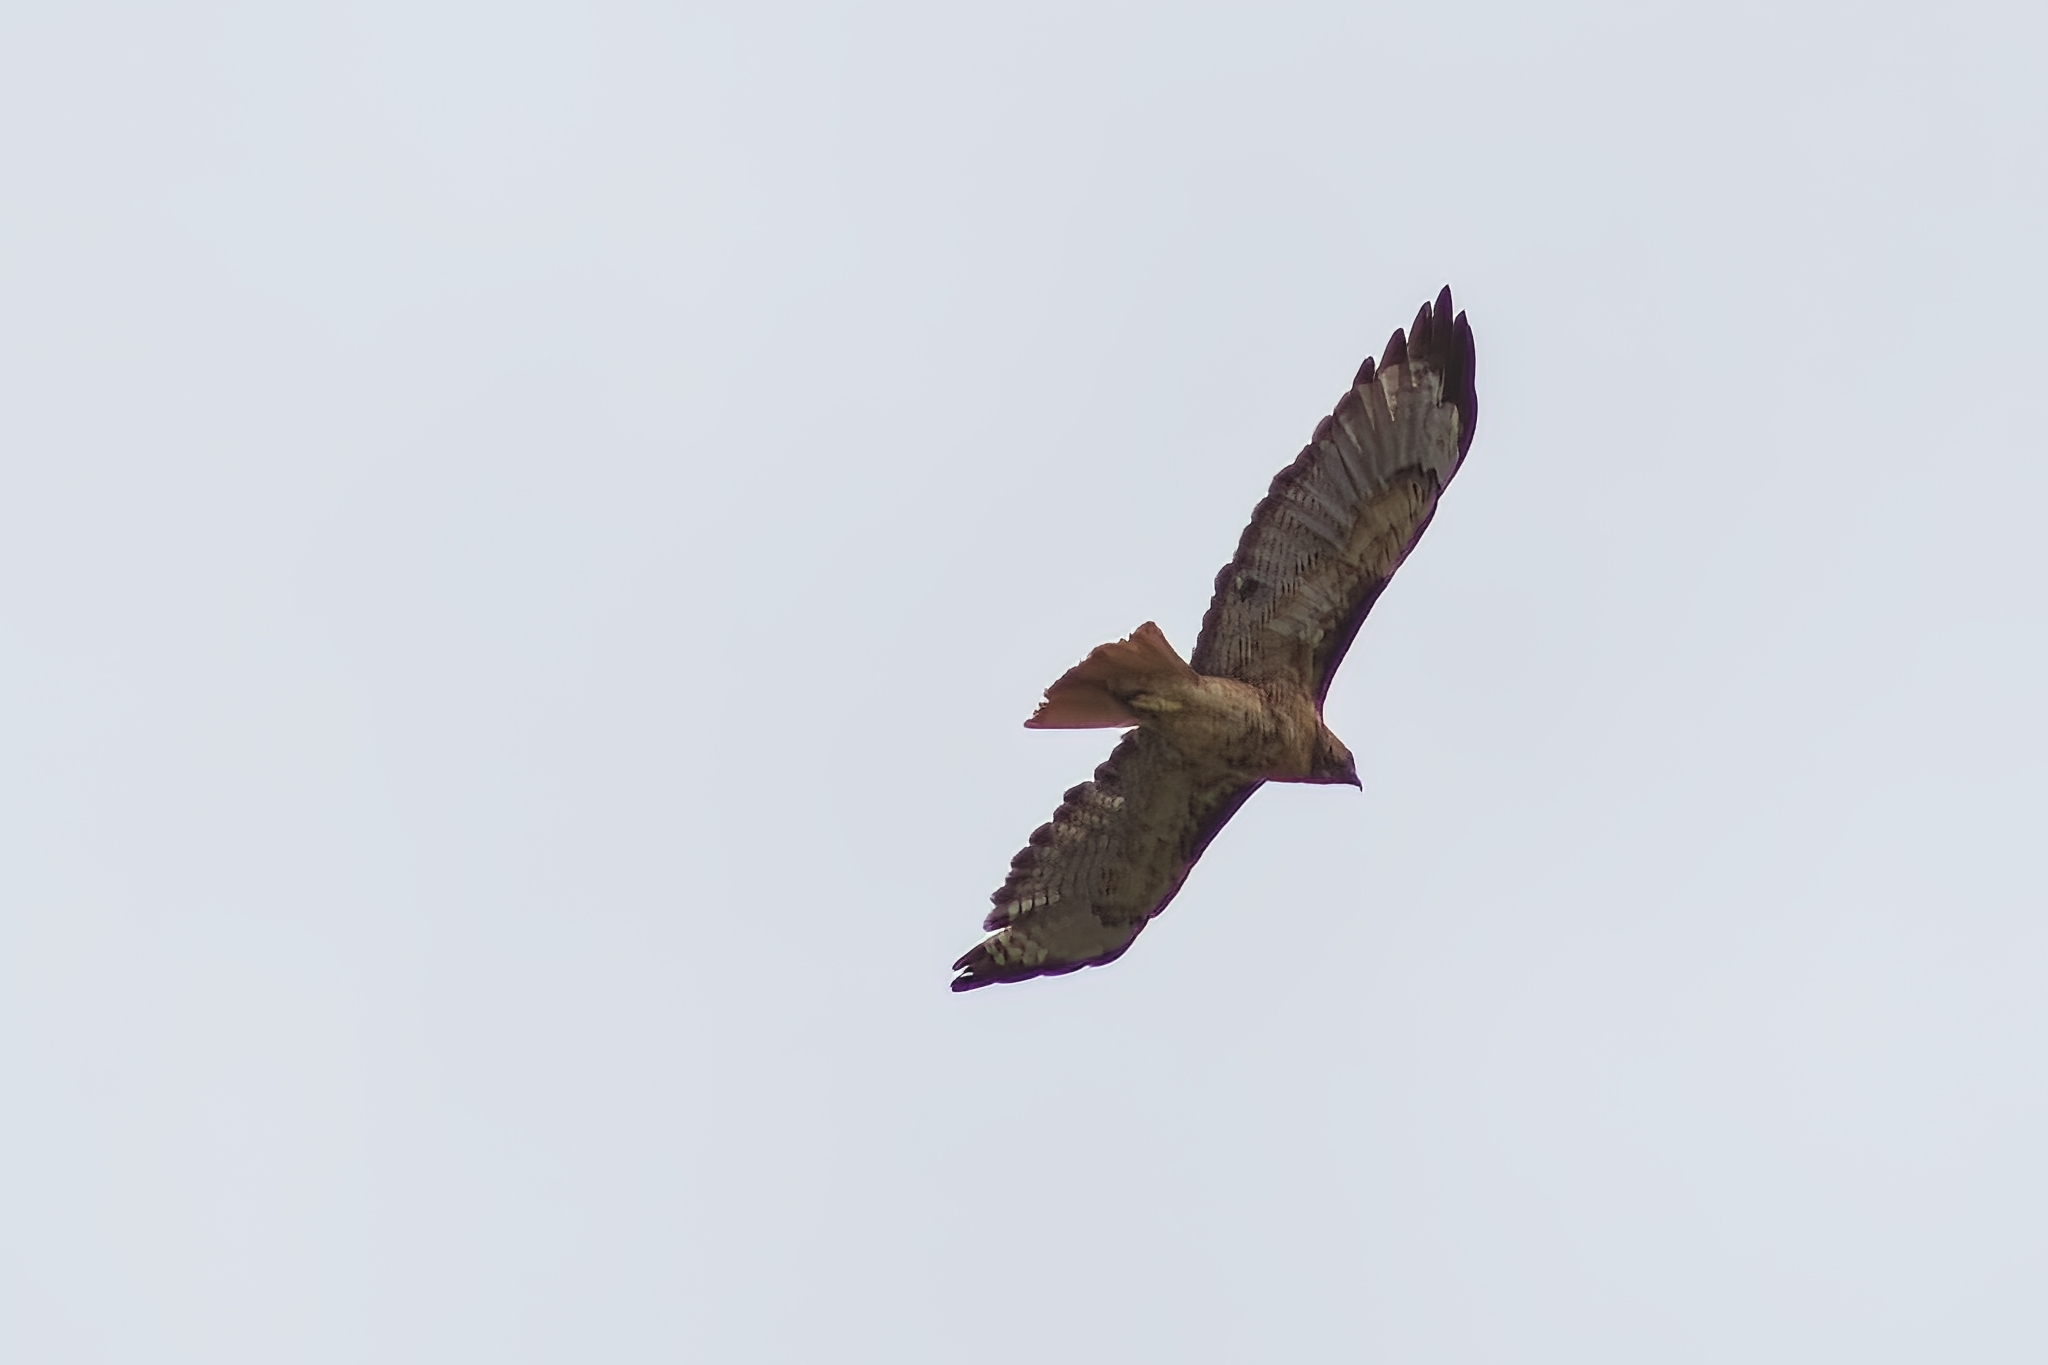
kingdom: Animalia
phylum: Chordata
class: Aves
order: Accipitriformes
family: Accipitridae
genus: Buteo
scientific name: Buteo jamaicensis
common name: Red-tailed hawk
